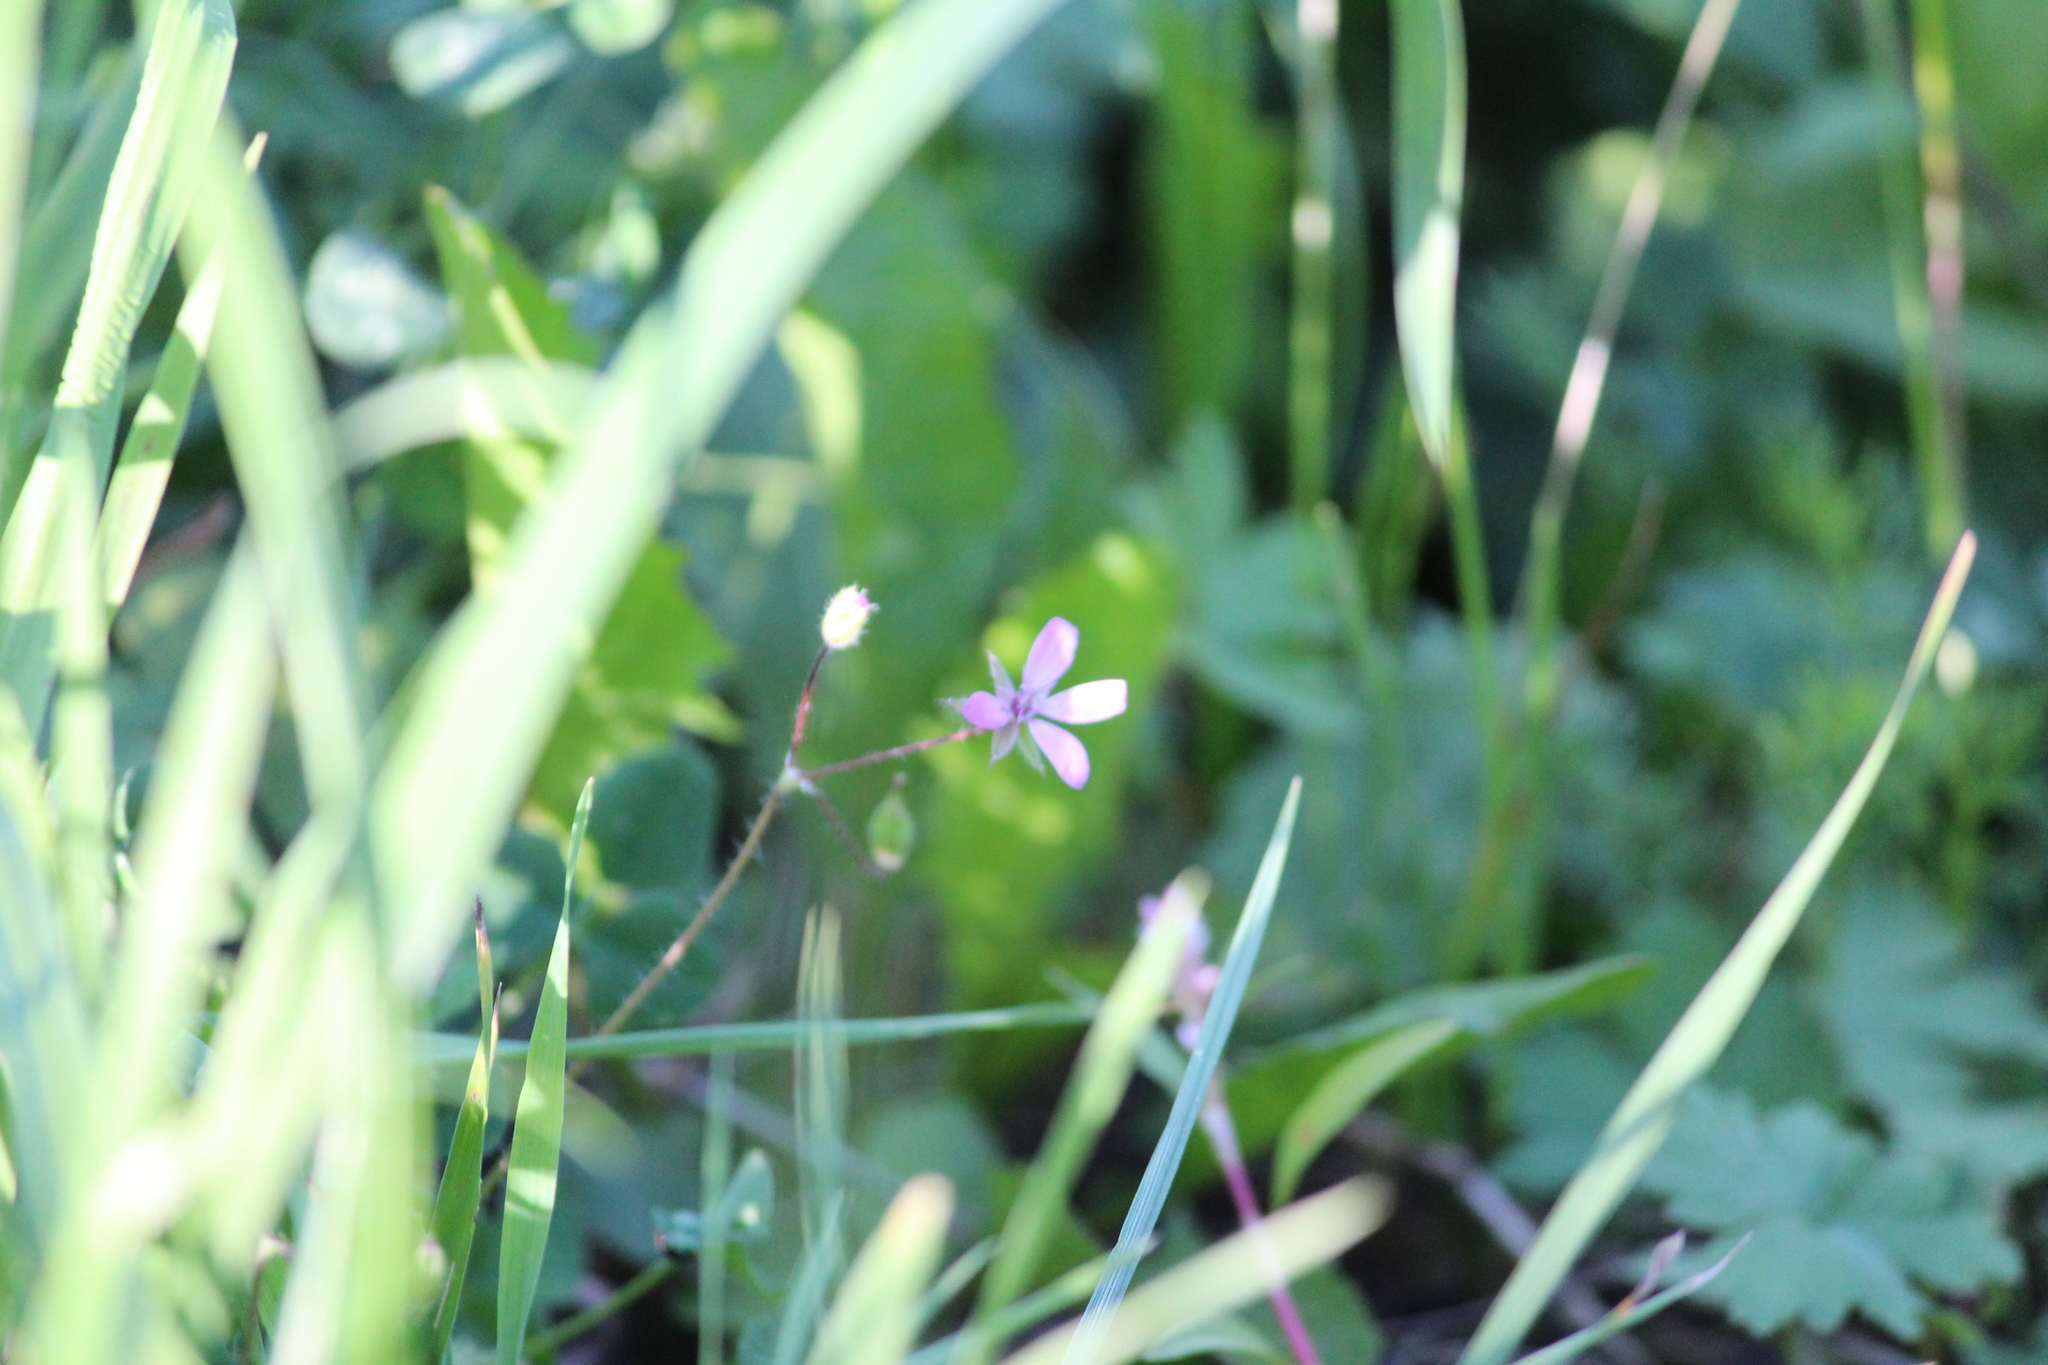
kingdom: Plantae
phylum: Tracheophyta
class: Magnoliopsida
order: Geraniales
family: Geraniaceae
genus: Erodium
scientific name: Erodium cicutarium
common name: Common stork's-bill
